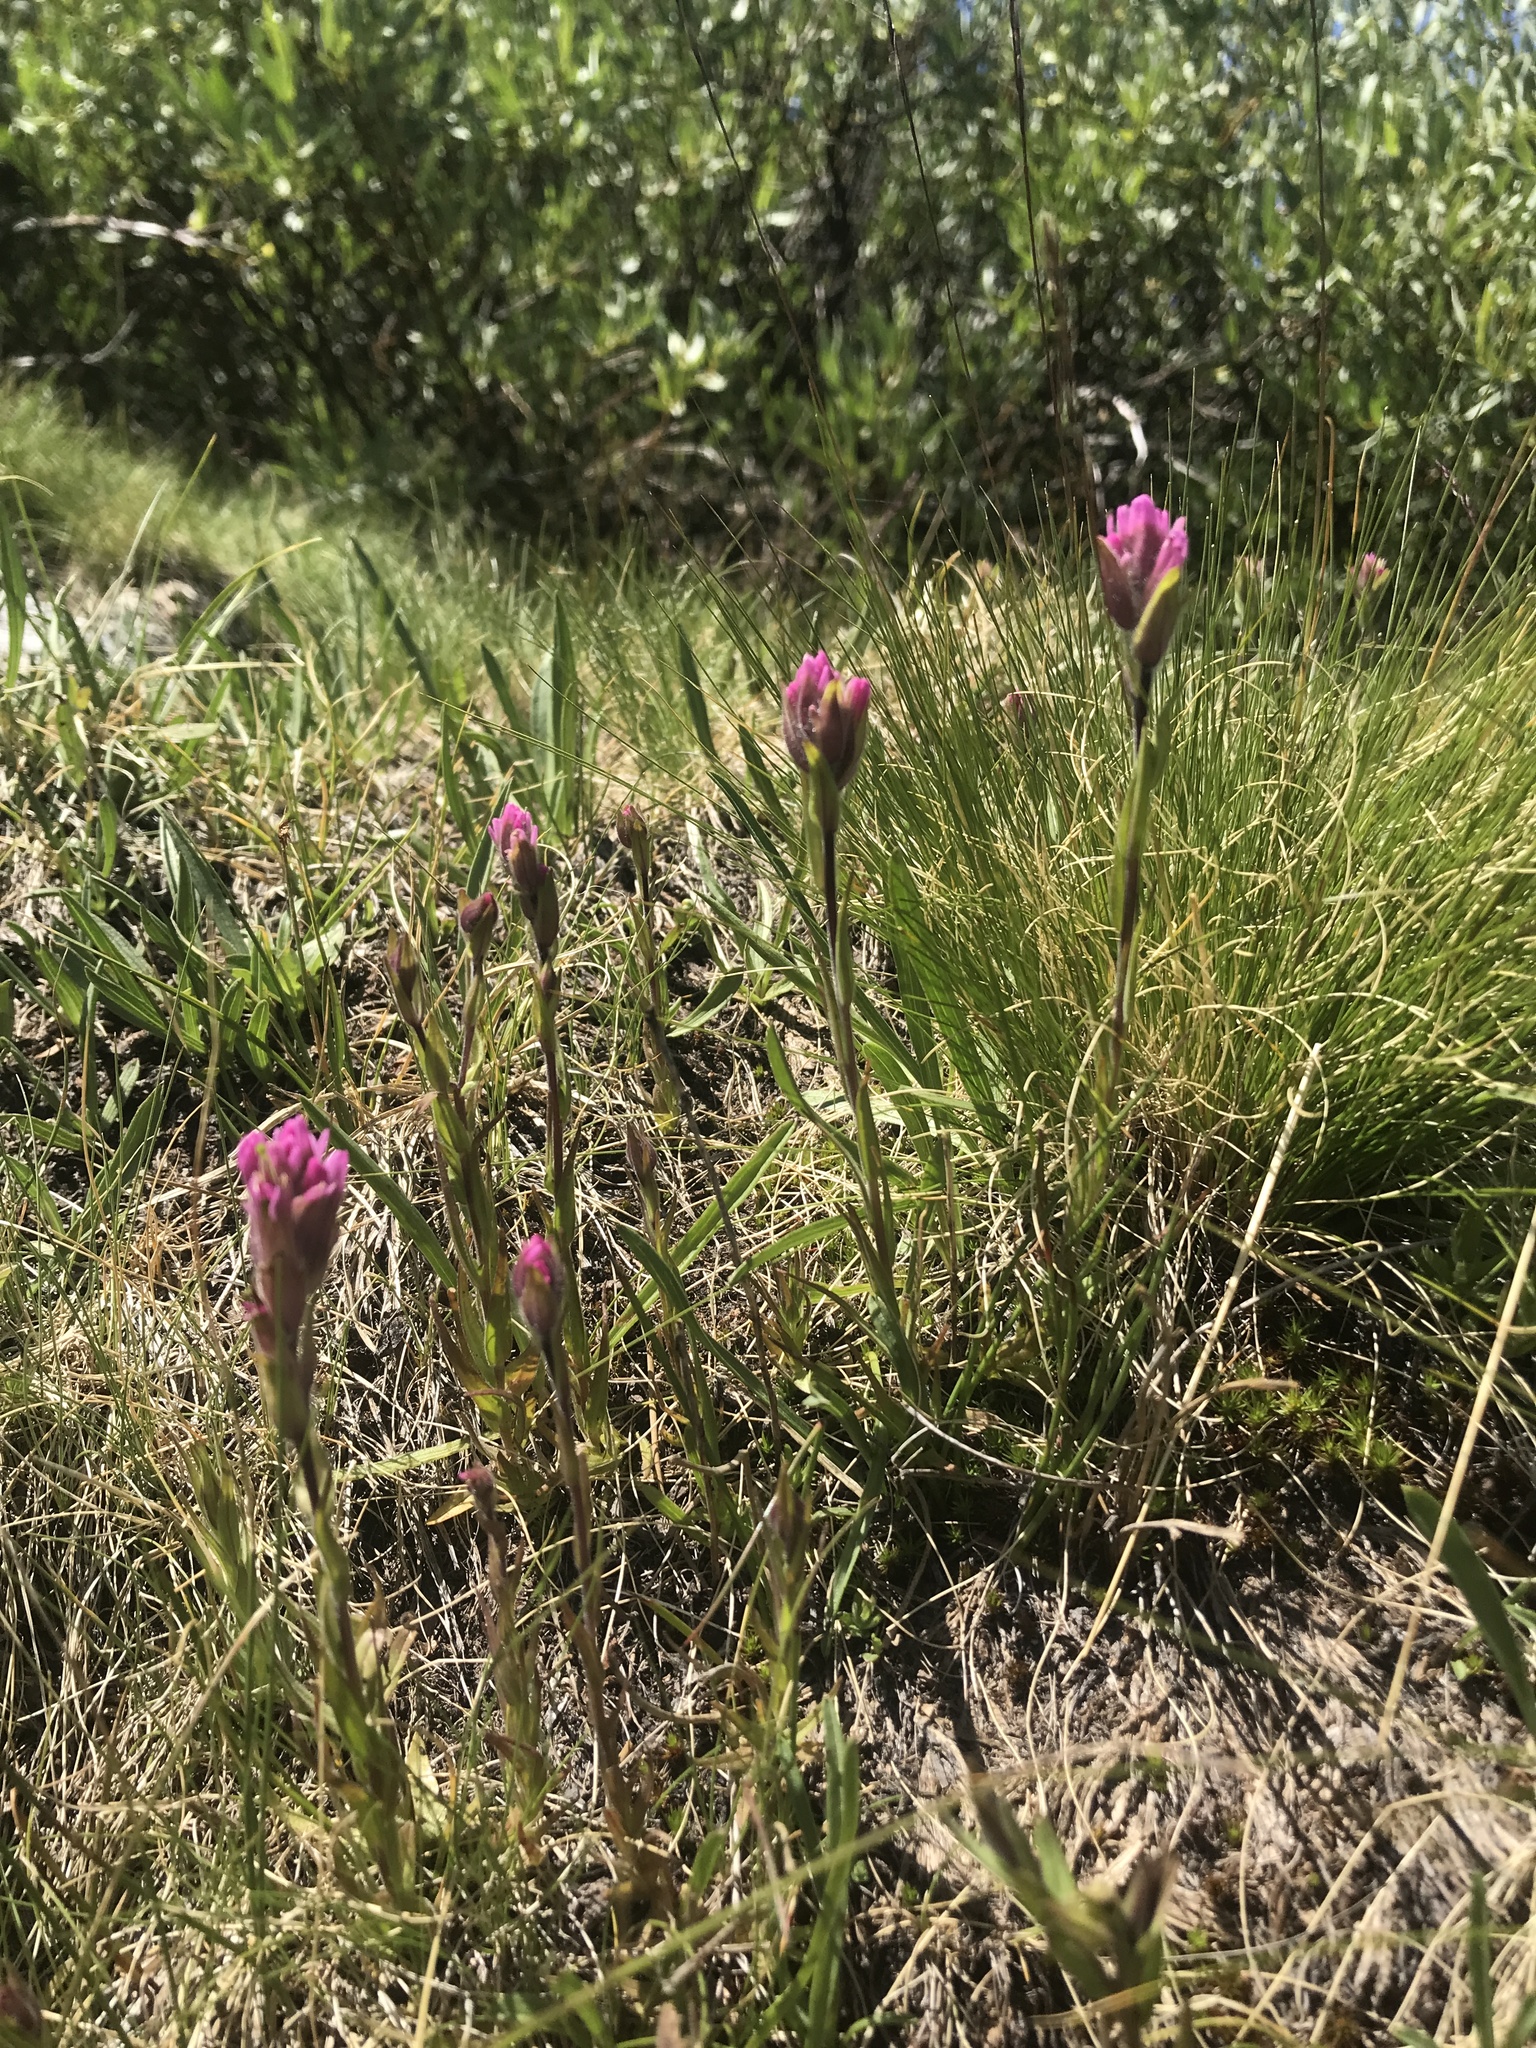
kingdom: Plantae
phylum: Tracheophyta
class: Magnoliopsida
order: Lamiales
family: Orobanchaceae
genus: Castilleja
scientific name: Castilleja lemmonii
